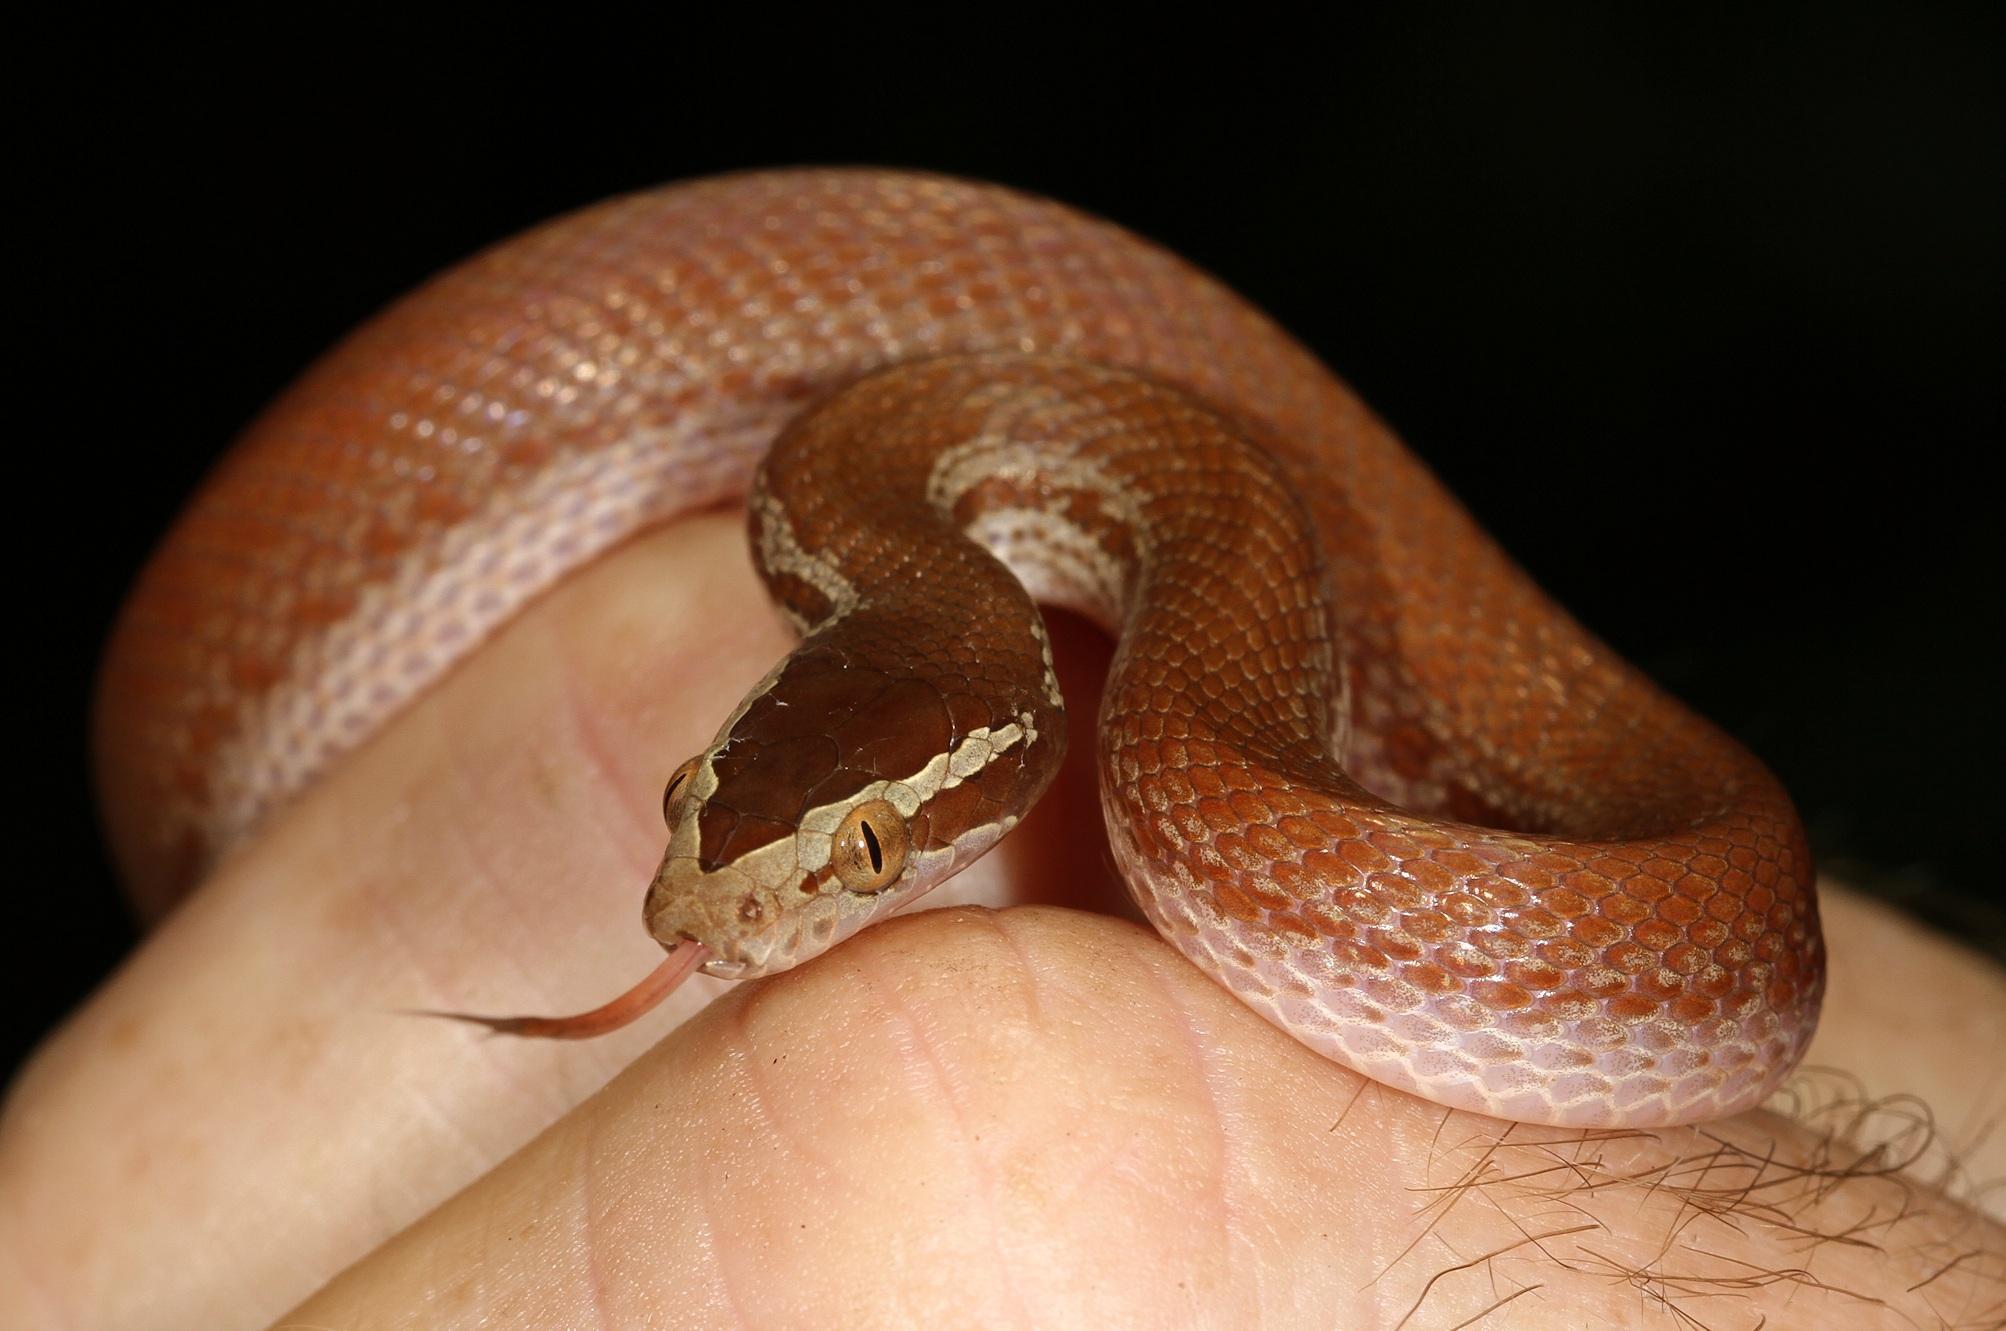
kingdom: Animalia
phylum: Chordata
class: Squamata
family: Lamprophiidae
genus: Boaedon
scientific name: Boaedon capensis
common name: Brown house snake
